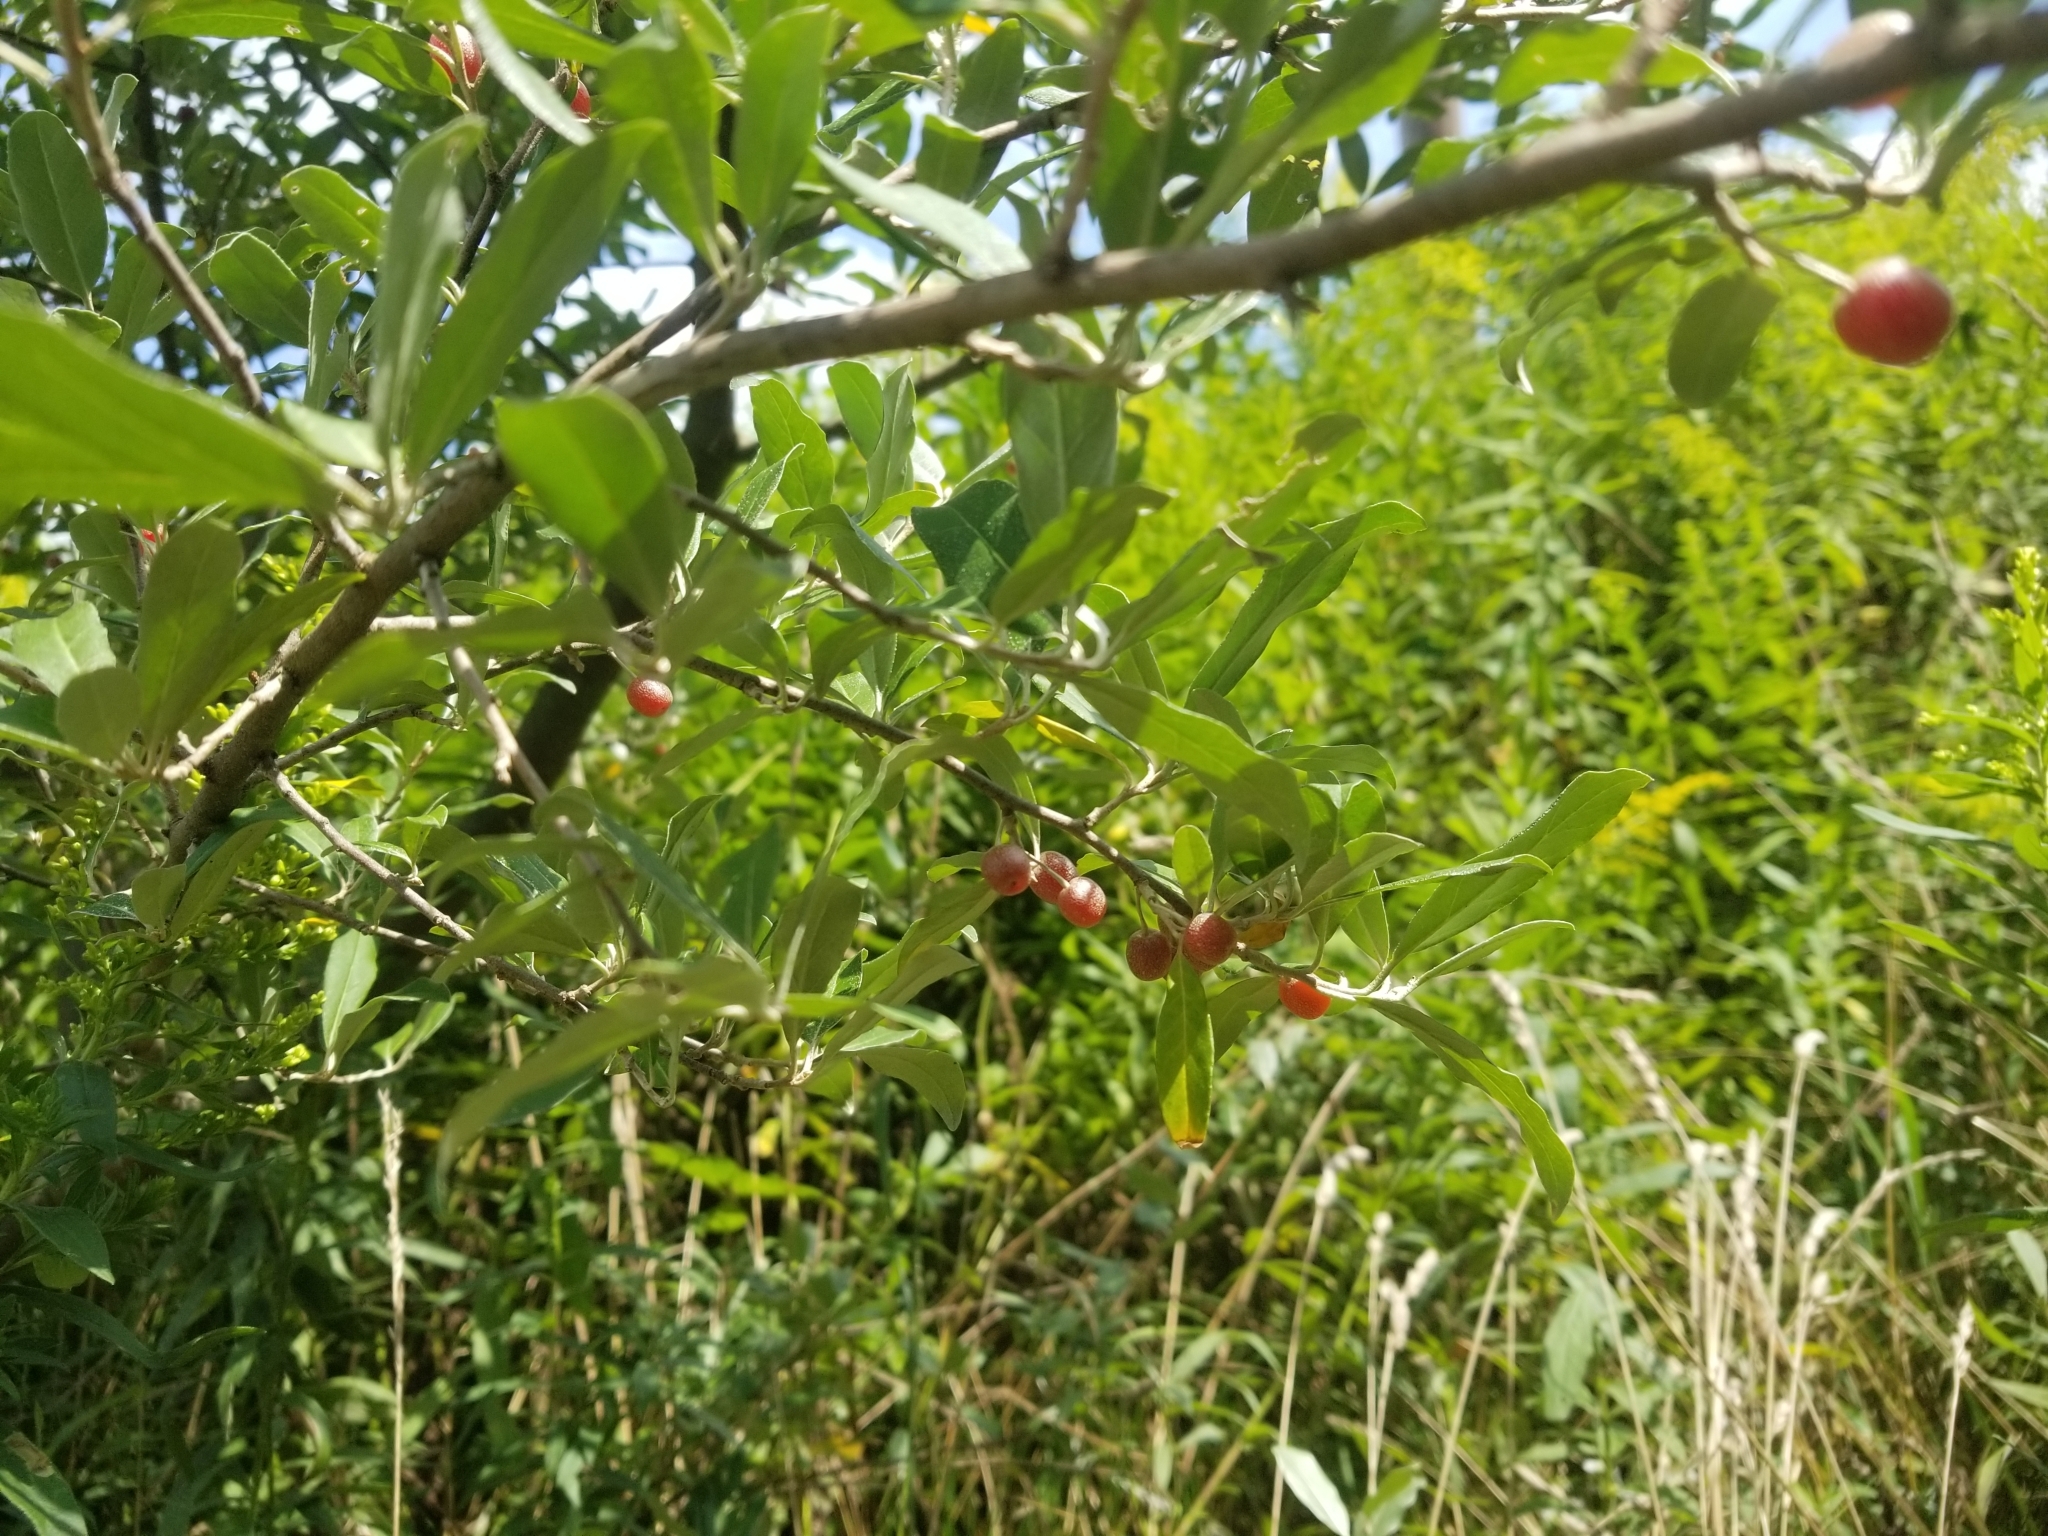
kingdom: Plantae
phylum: Tracheophyta
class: Magnoliopsida
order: Rosales
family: Elaeagnaceae
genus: Elaeagnus
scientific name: Elaeagnus umbellata
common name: Autumn olive
